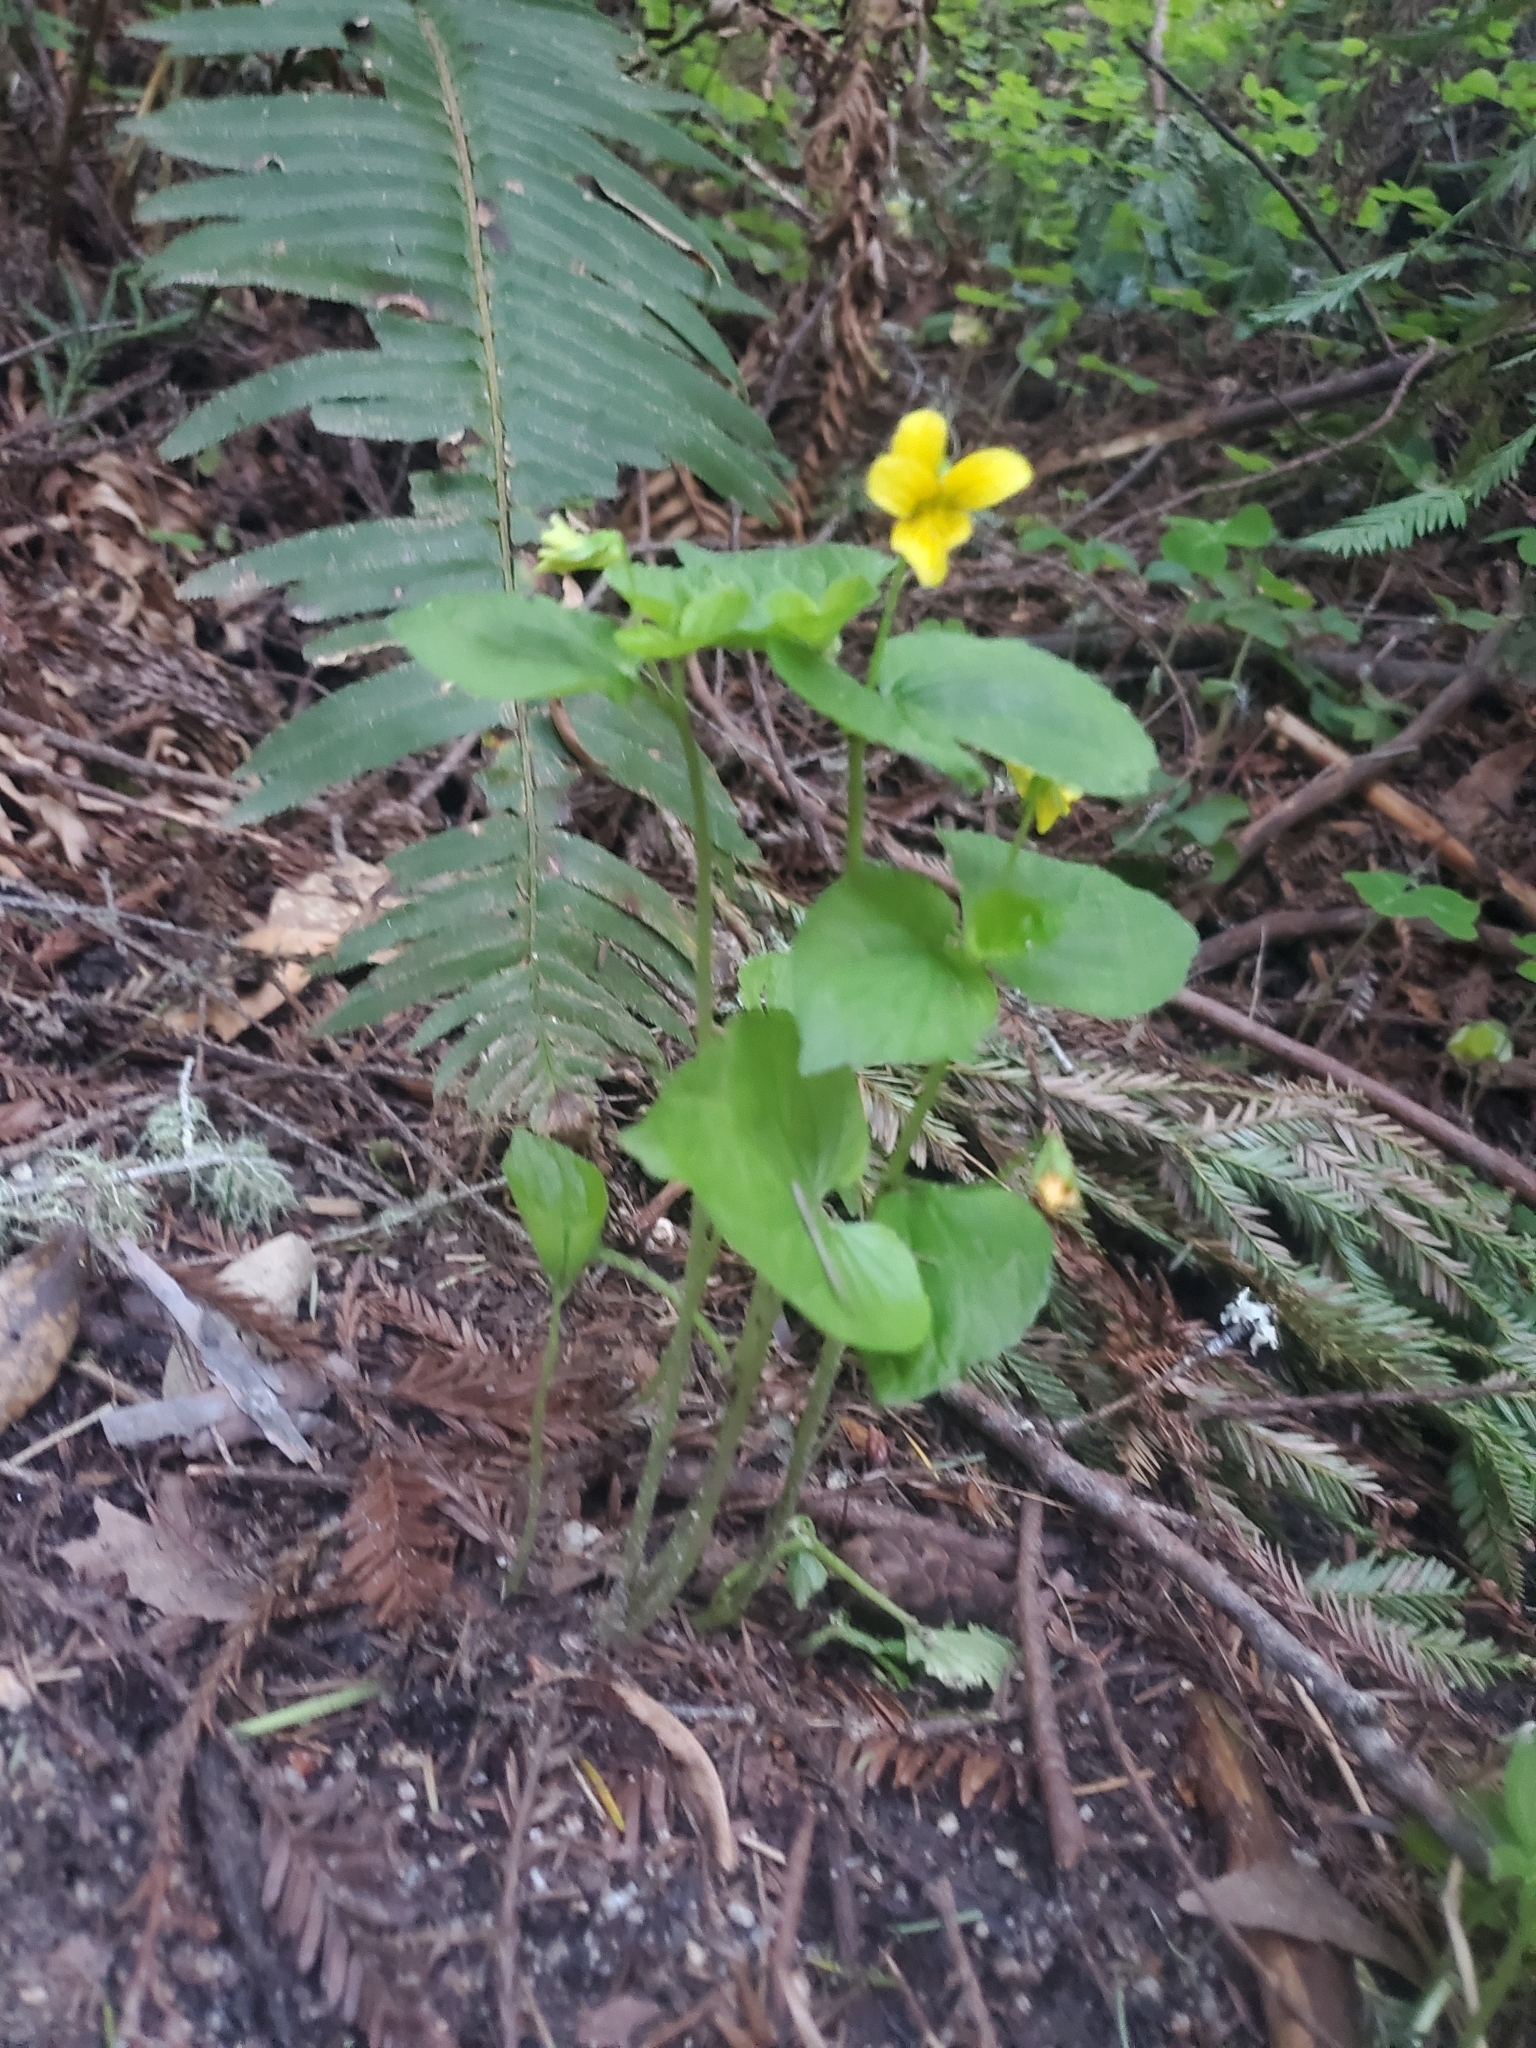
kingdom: Plantae
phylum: Tracheophyta
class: Magnoliopsida
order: Malpighiales
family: Violaceae
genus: Viola
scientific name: Viola glabella
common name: Stream violet
